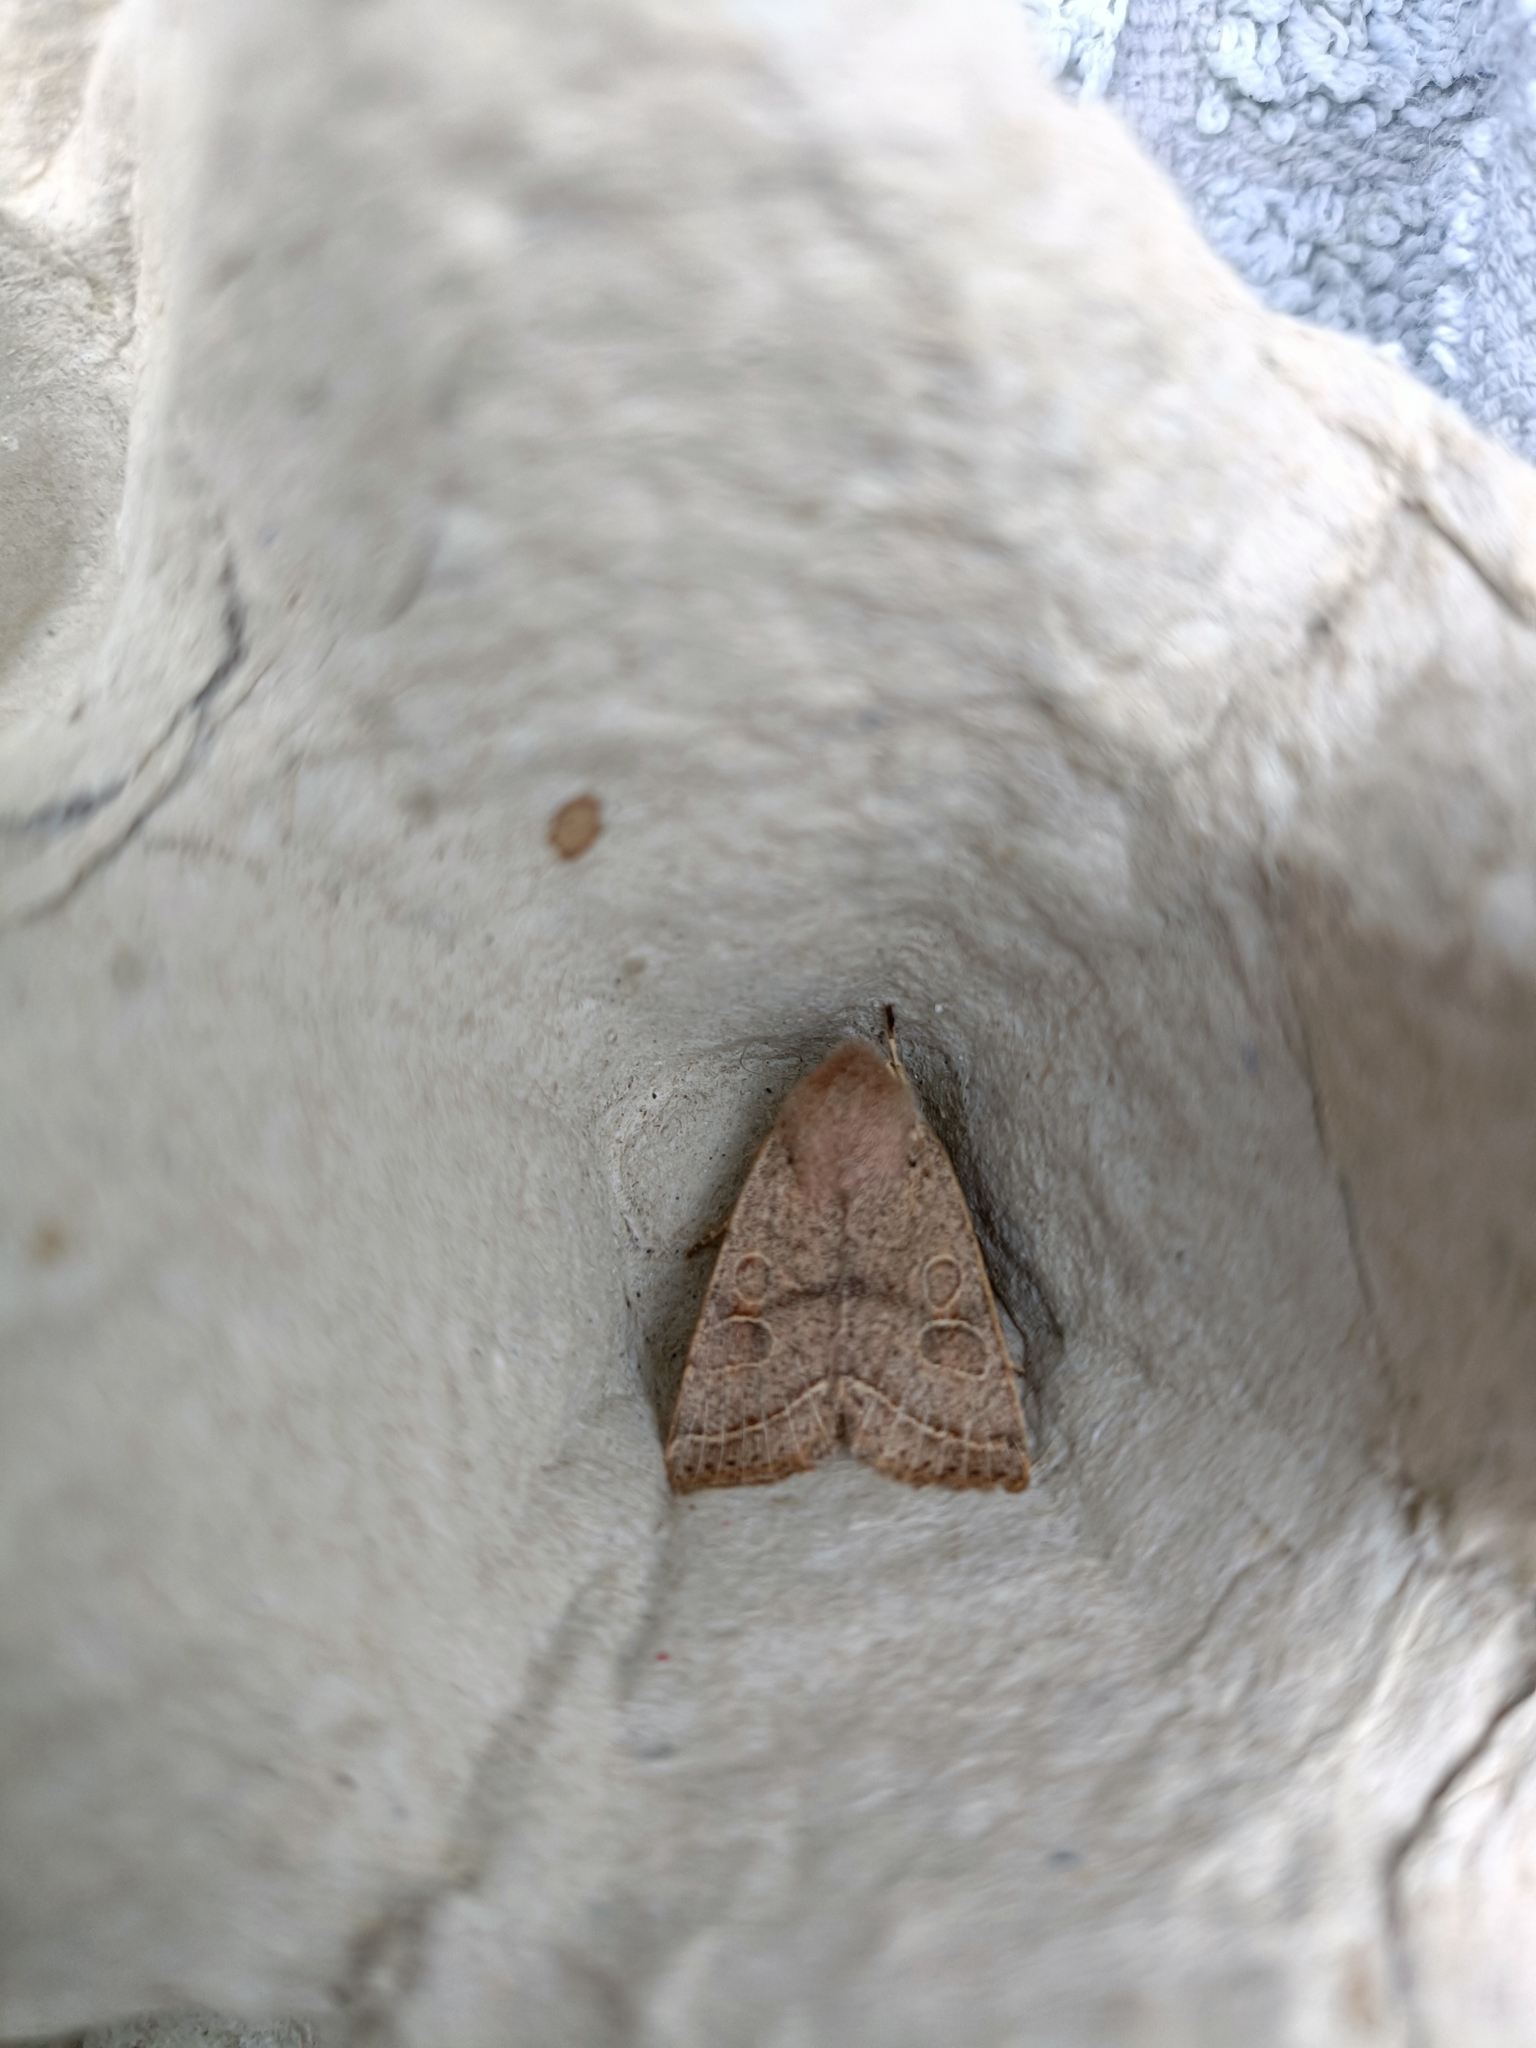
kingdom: Animalia
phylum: Arthropoda
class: Insecta
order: Lepidoptera
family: Noctuidae
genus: Orthosia
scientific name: Orthosia cerasi
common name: Common quaker
